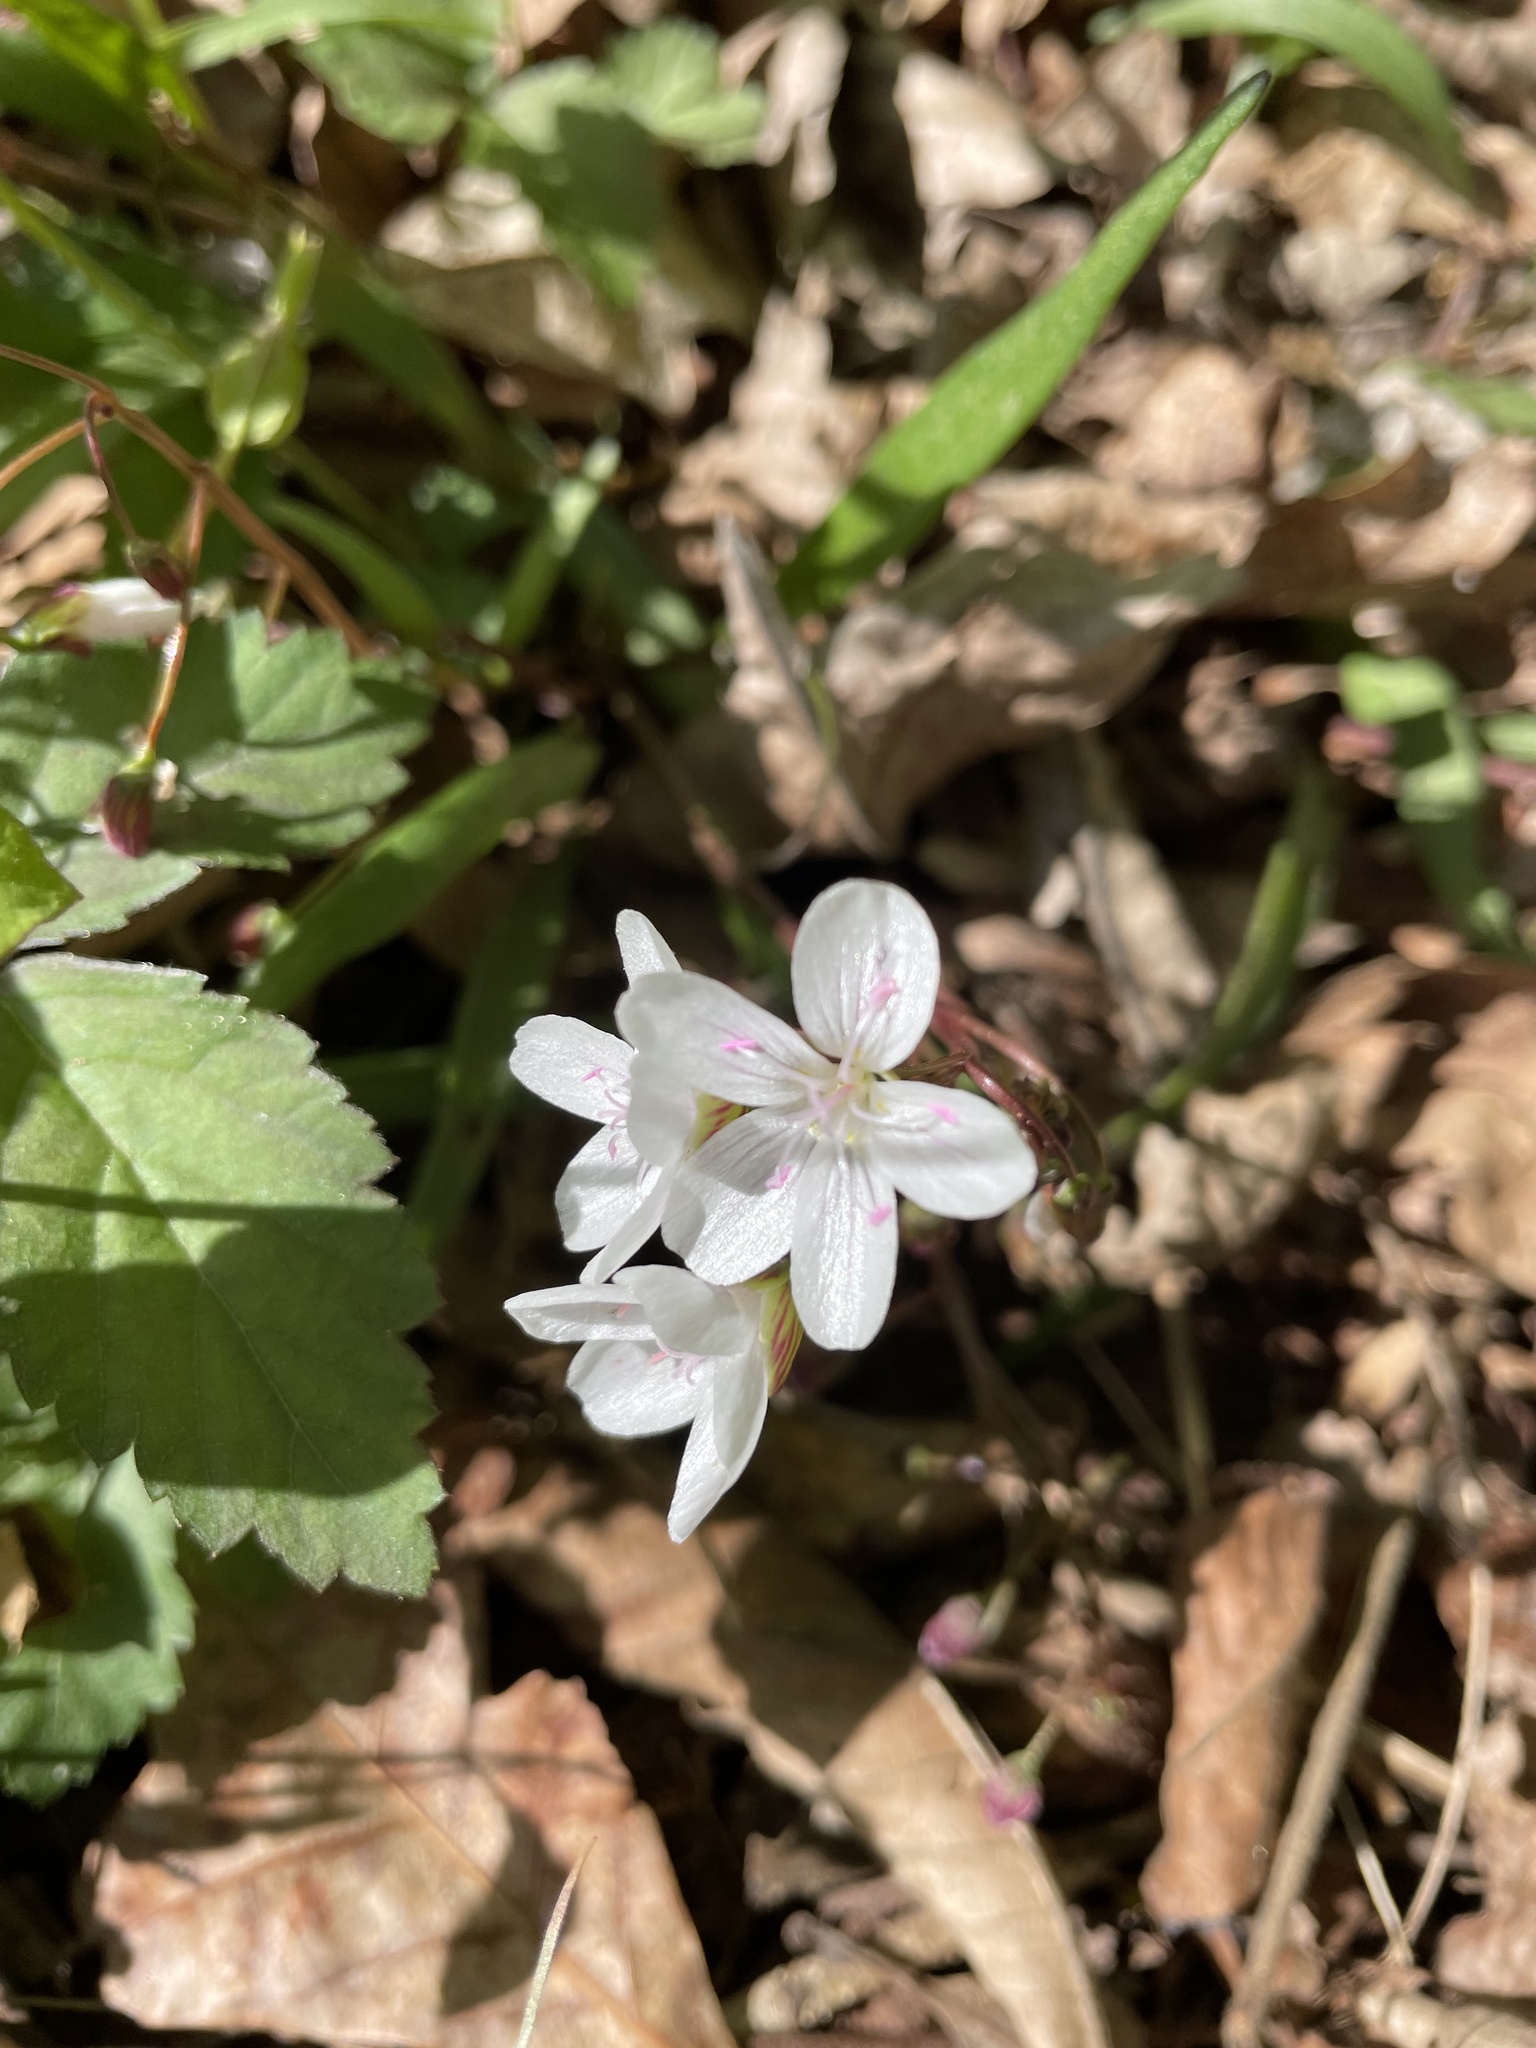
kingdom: Plantae
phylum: Tracheophyta
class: Magnoliopsida
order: Caryophyllales
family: Montiaceae
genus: Claytonia
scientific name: Claytonia virginica
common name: Virginia springbeauty
